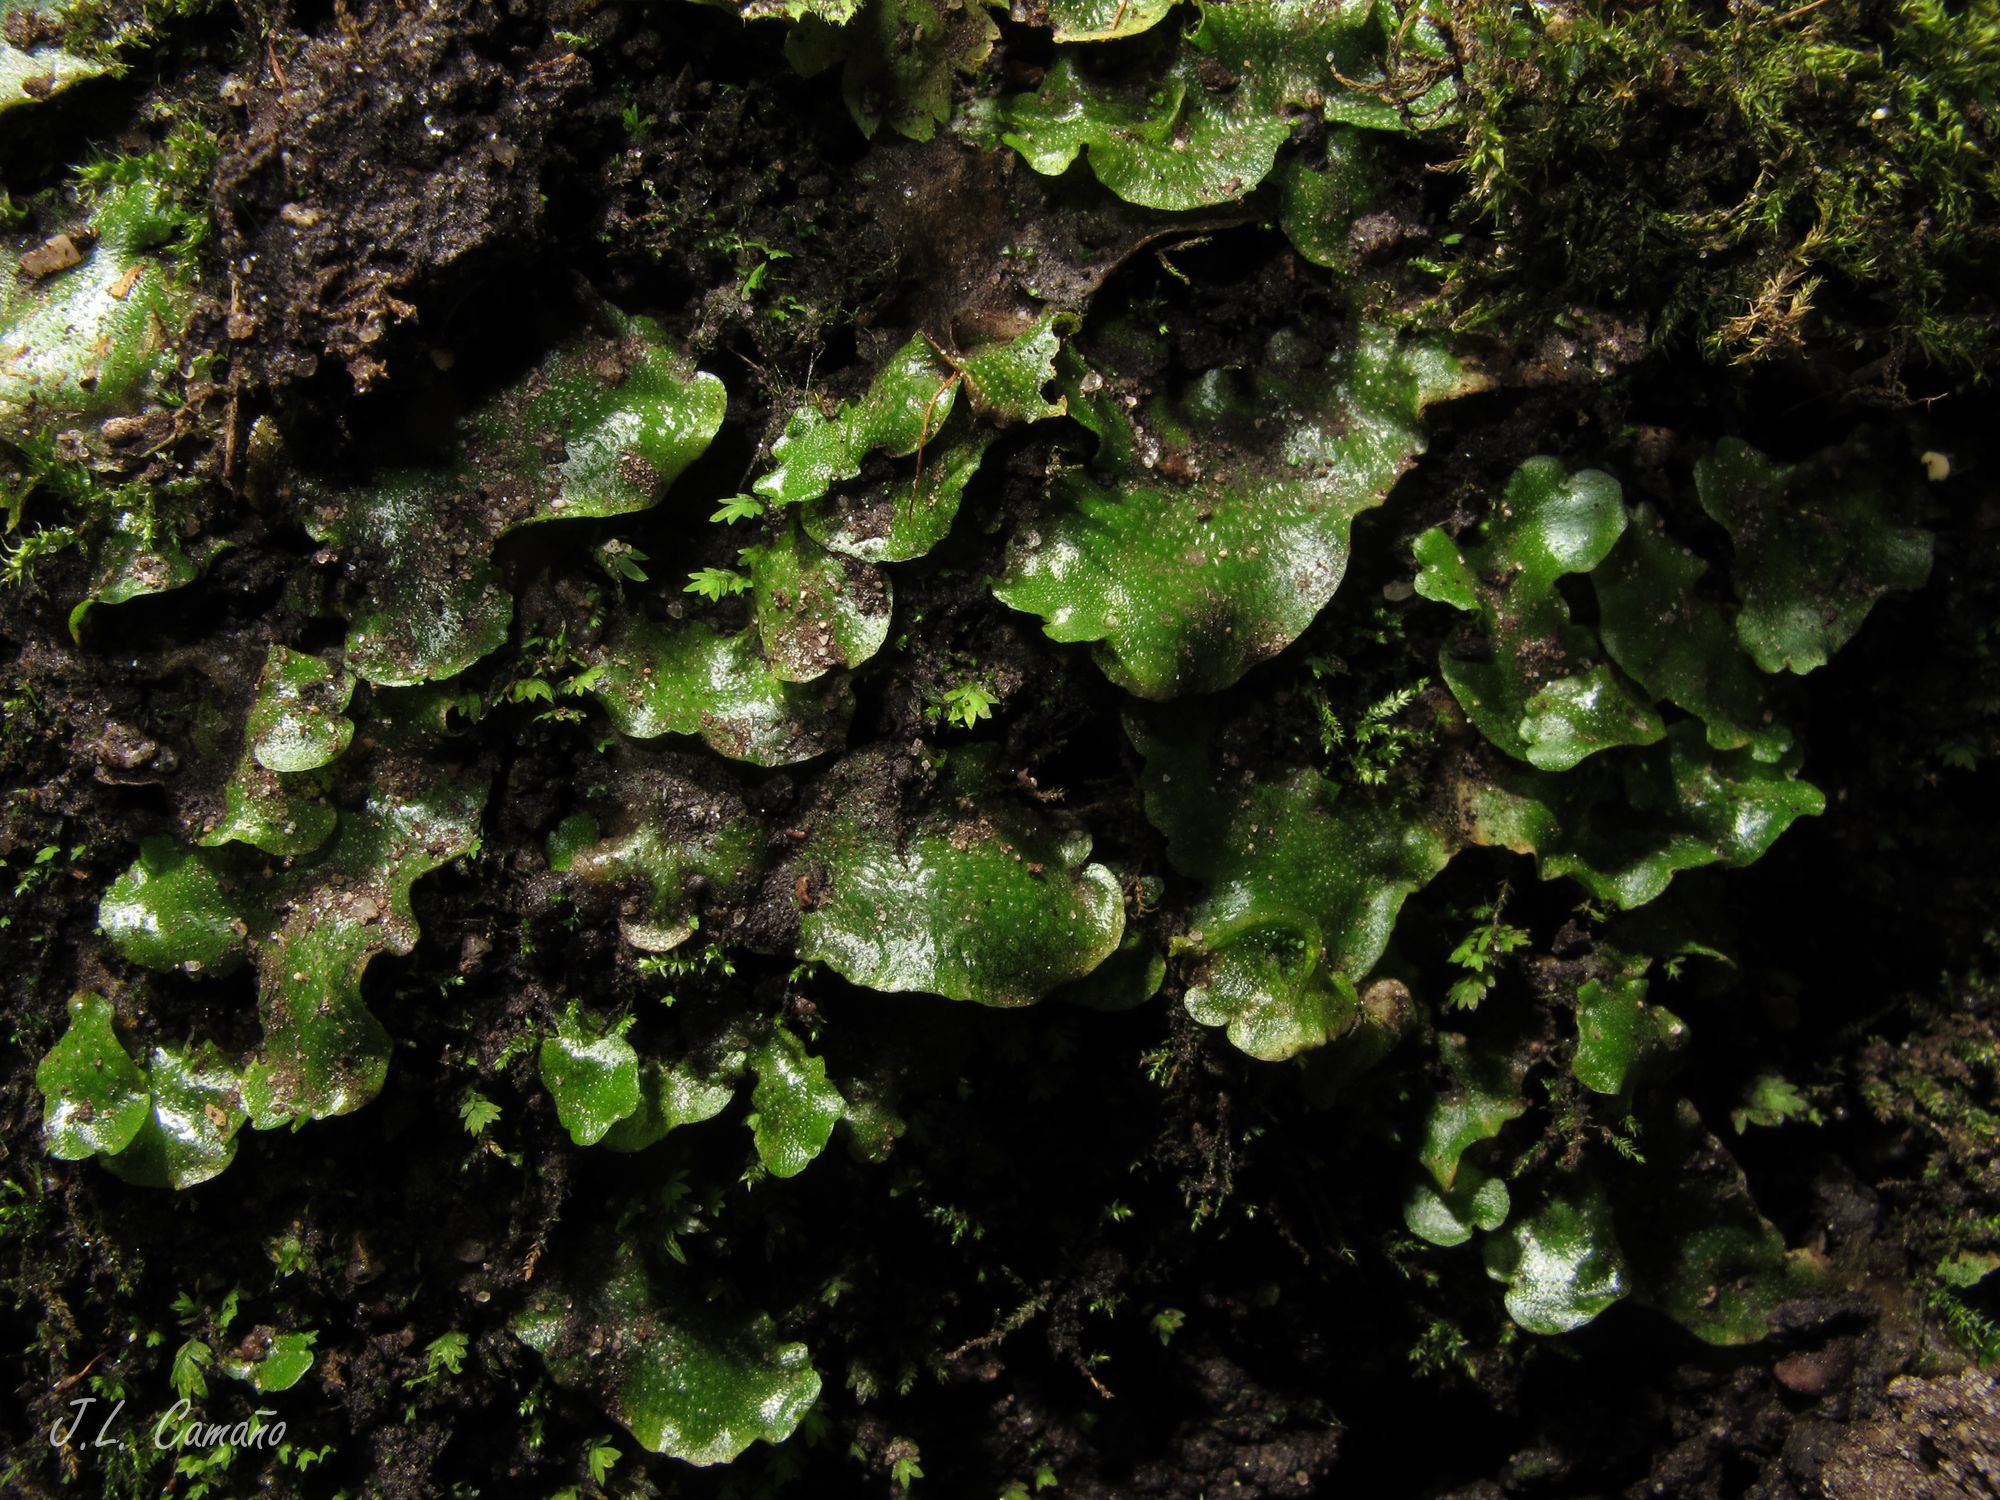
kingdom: Plantae
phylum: Marchantiophyta
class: Marchantiopsida
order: Lunulariales
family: Lunulariaceae
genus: Lunularia
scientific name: Lunularia cruciata
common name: Crescent-cup liverwort
